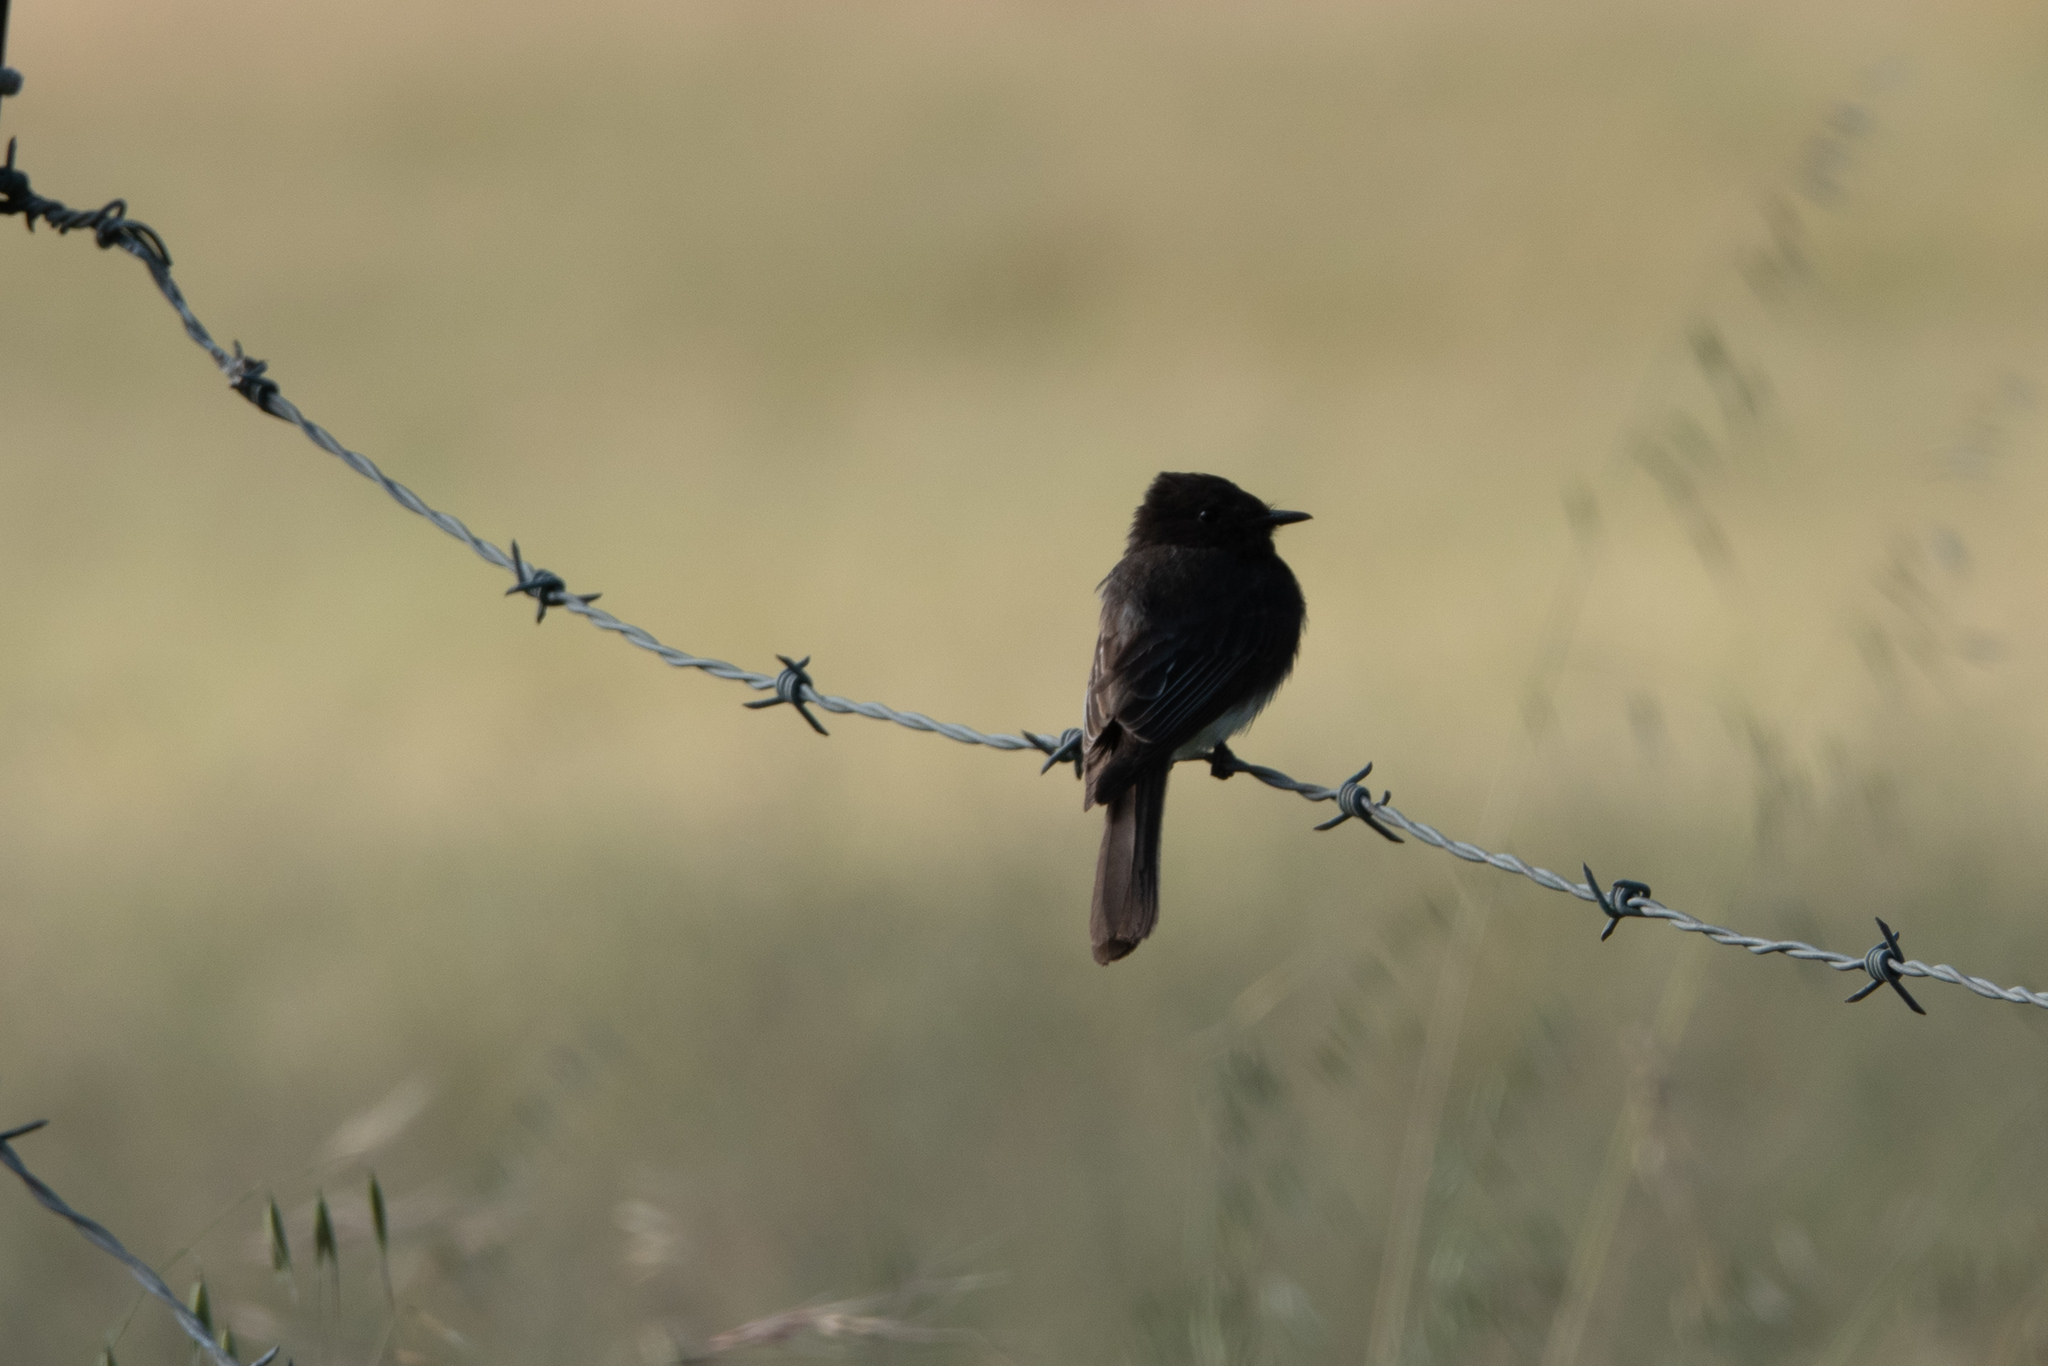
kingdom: Animalia
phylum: Chordata
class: Aves
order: Passeriformes
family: Tyrannidae
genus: Sayornis
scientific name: Sayornis nigricans
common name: Black phoebe
